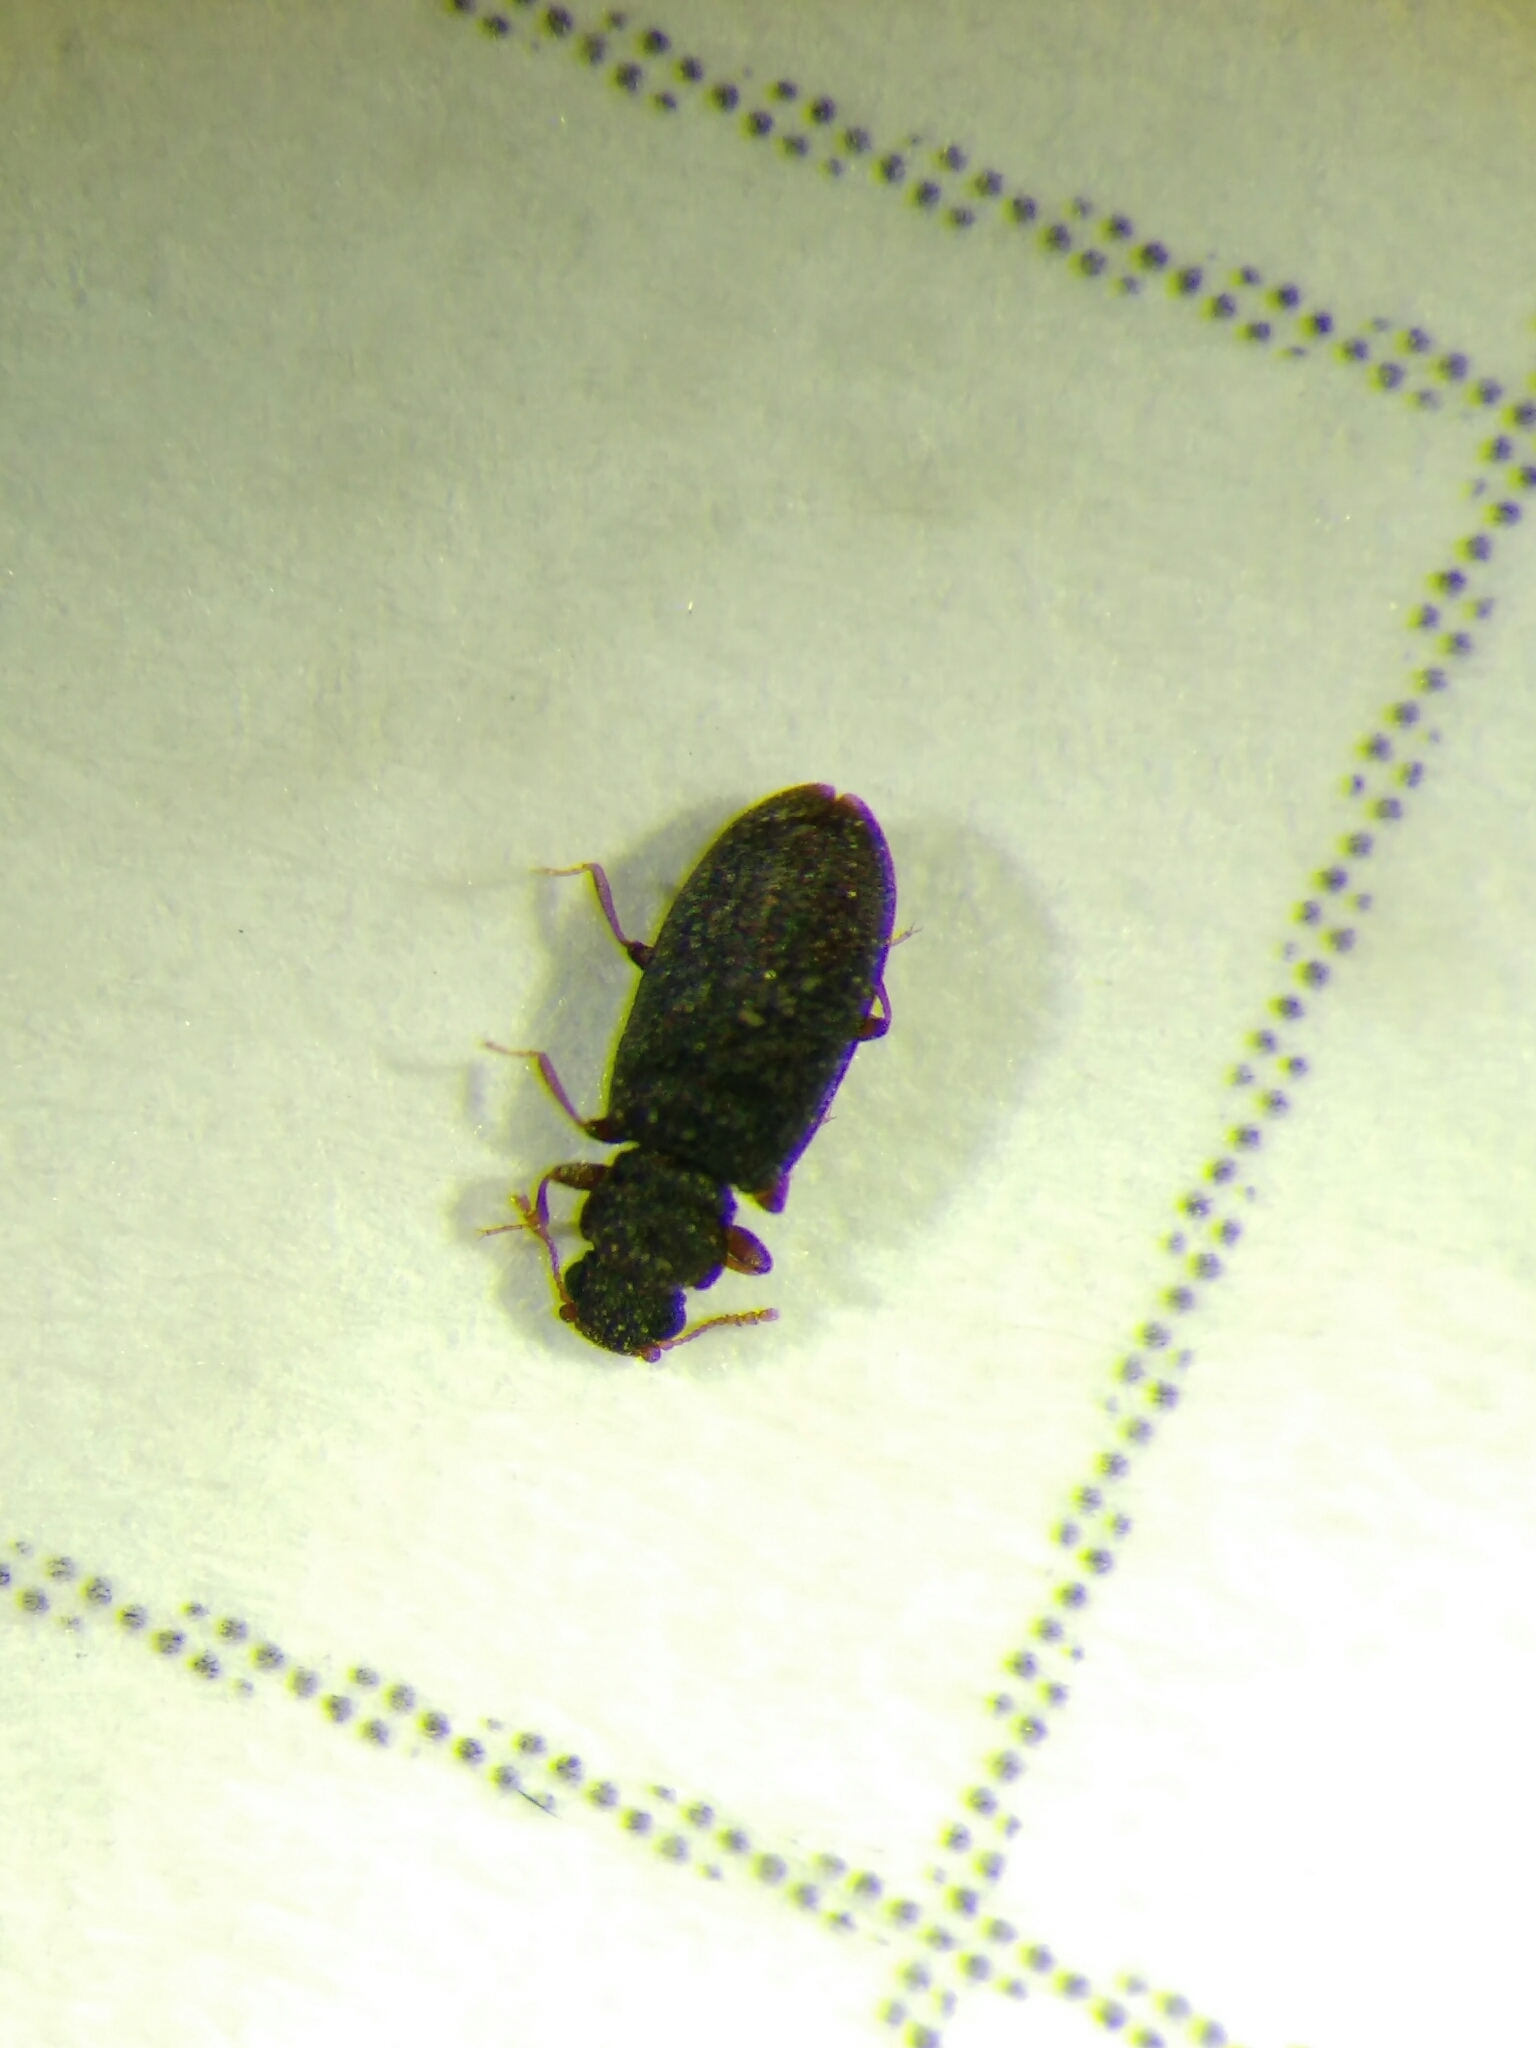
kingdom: Animalia
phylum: Arthropoda
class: Insecta
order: Coleoptera
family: Latridiidae
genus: Enicmus
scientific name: Enicmus brevicornis
